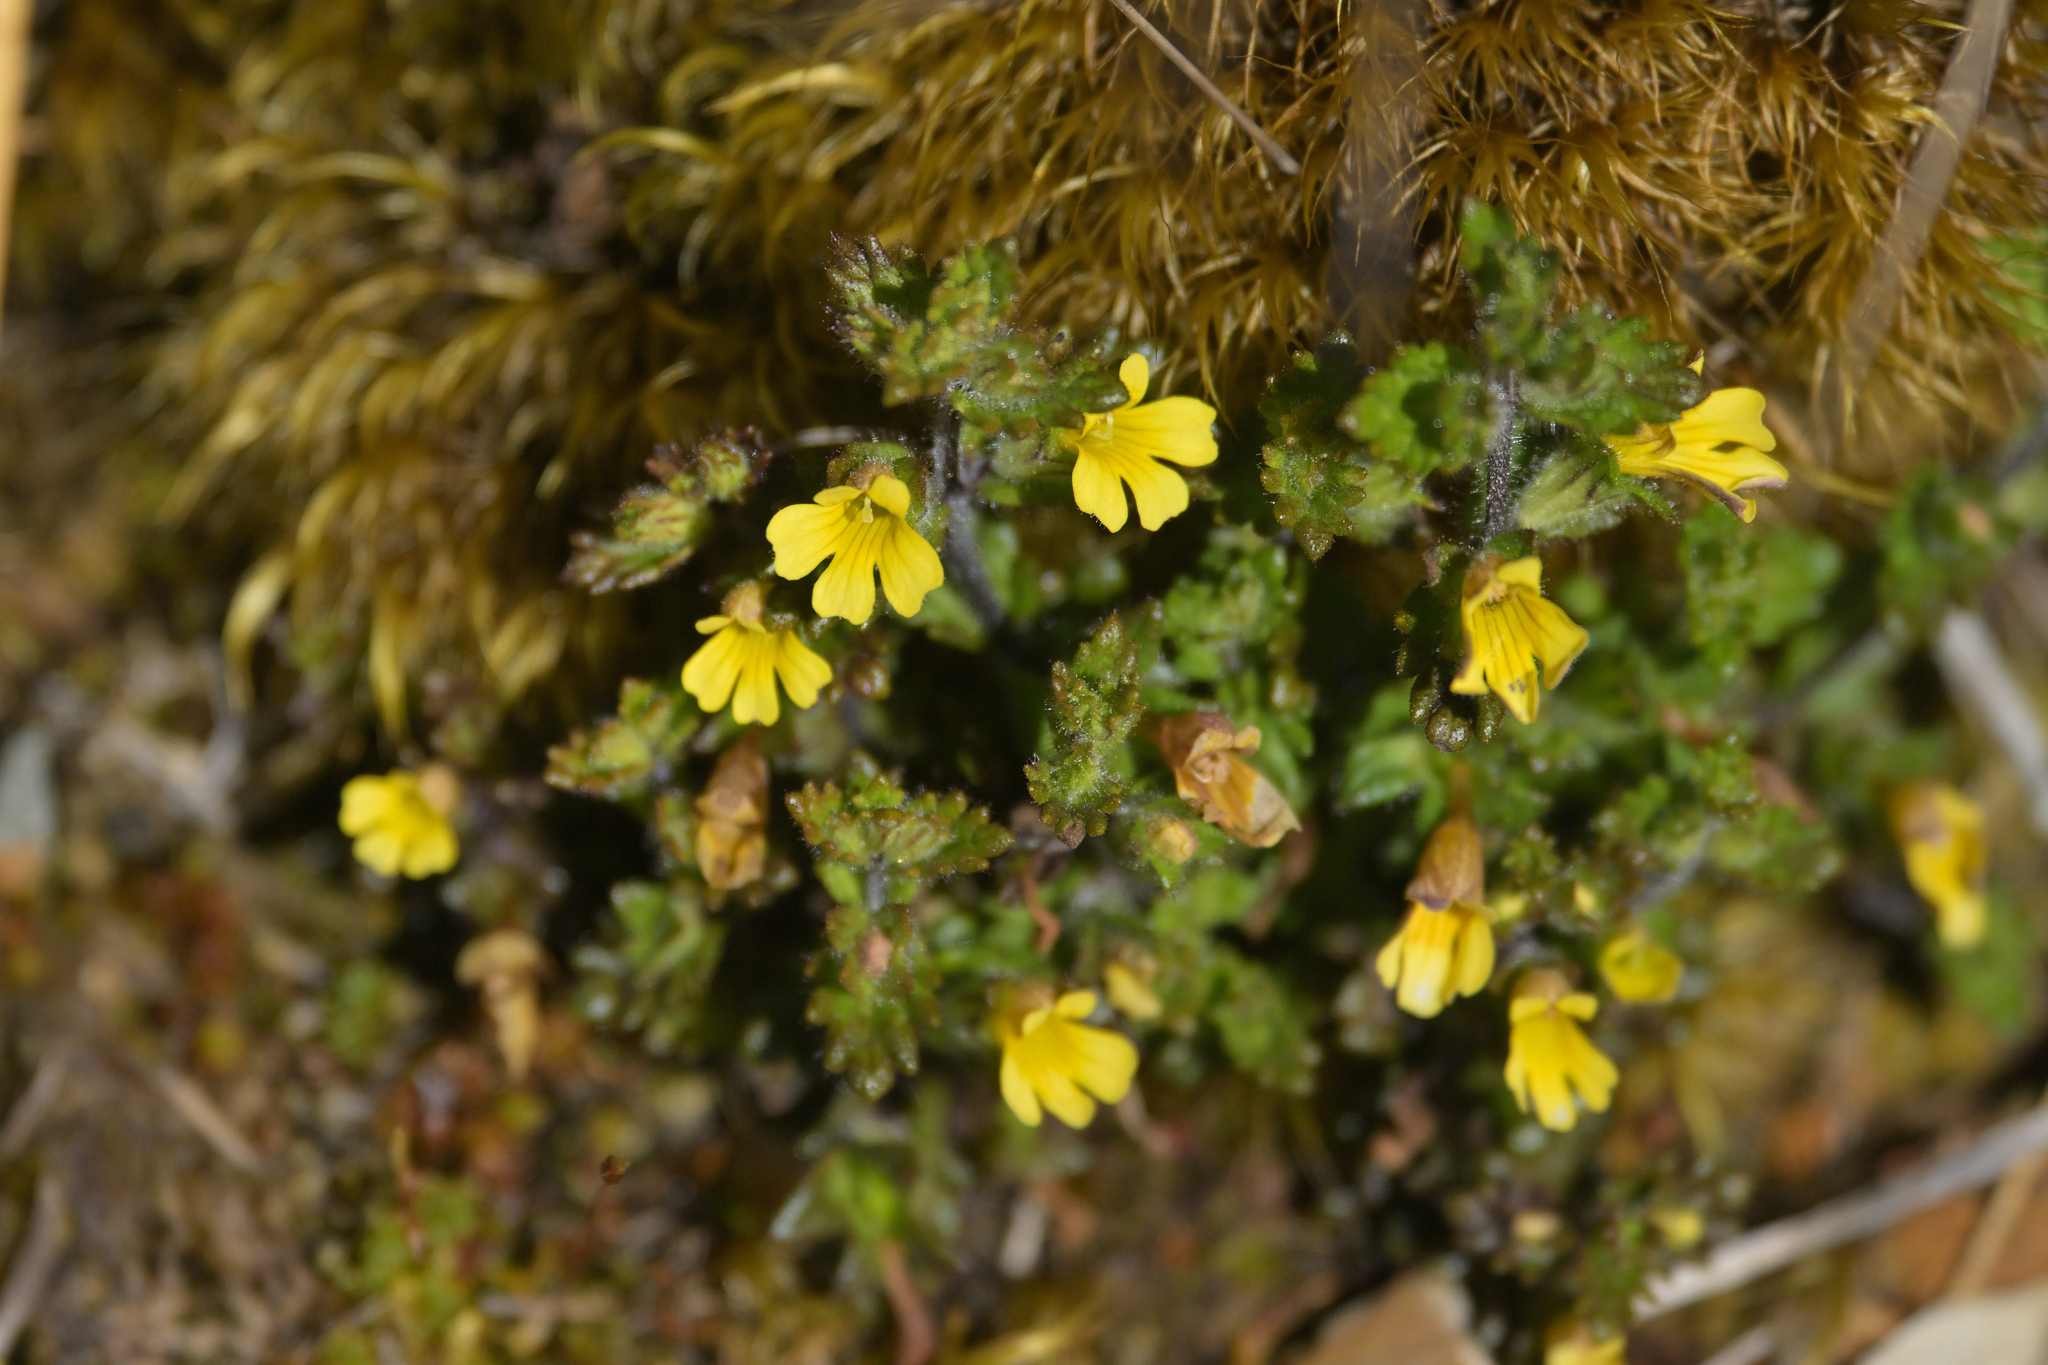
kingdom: Plantae
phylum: Tracheophyta
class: Magnoliopsida
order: Lamiales
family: Orobanchaceae
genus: Euphrasia
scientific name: Euphrasia cockayneana
